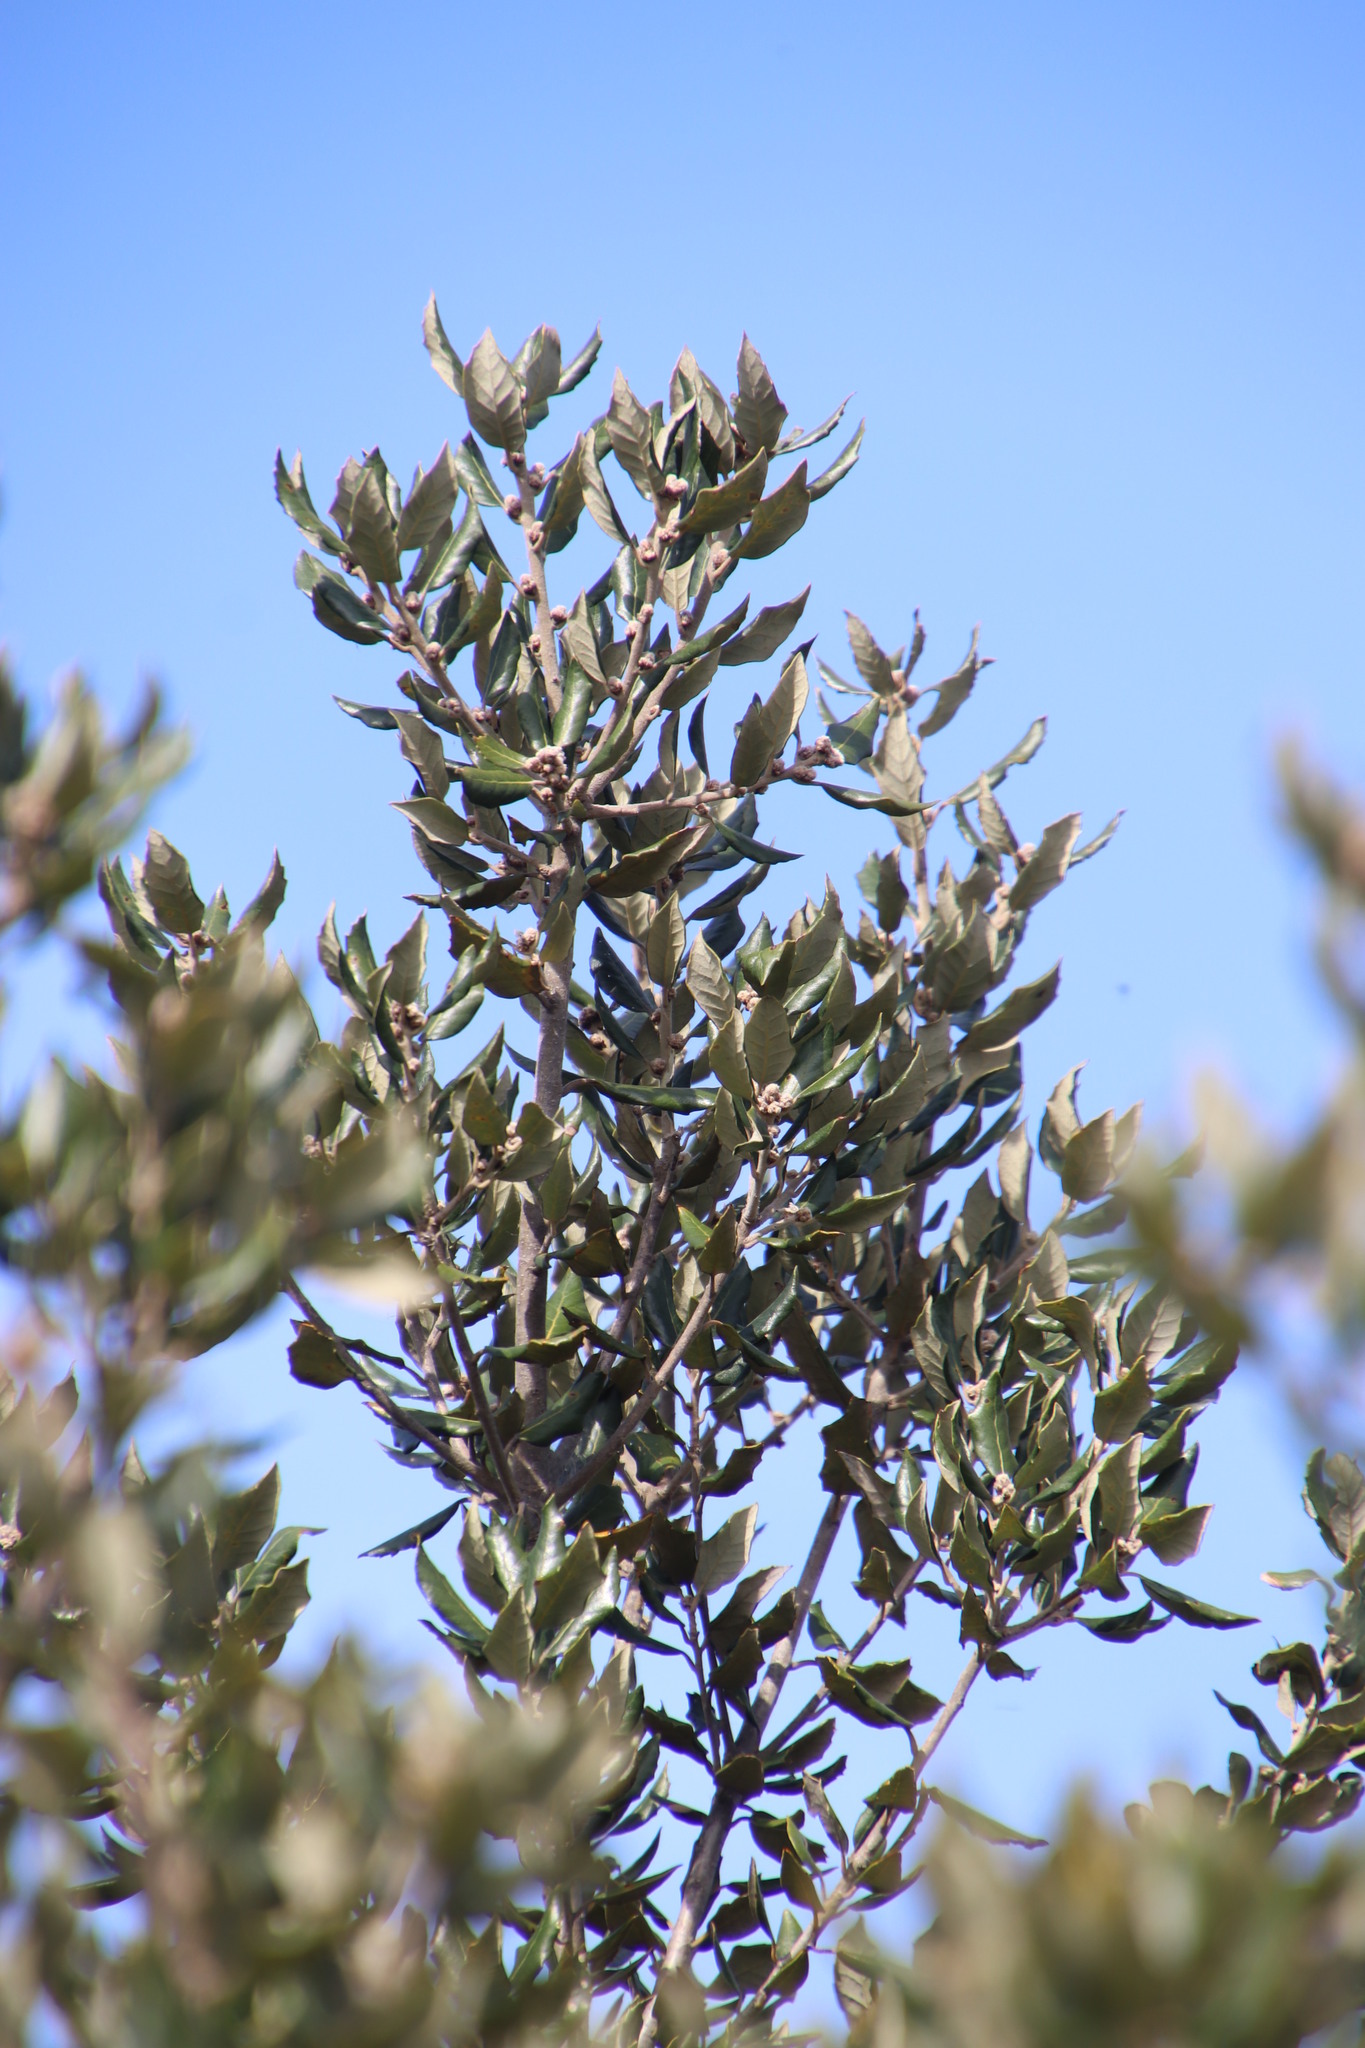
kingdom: Plantae
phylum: Tracheophyta
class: Magnoliopsida
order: Fagales
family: Fagaceae
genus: Quercus
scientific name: Quercus ilex
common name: Evergreen oak
